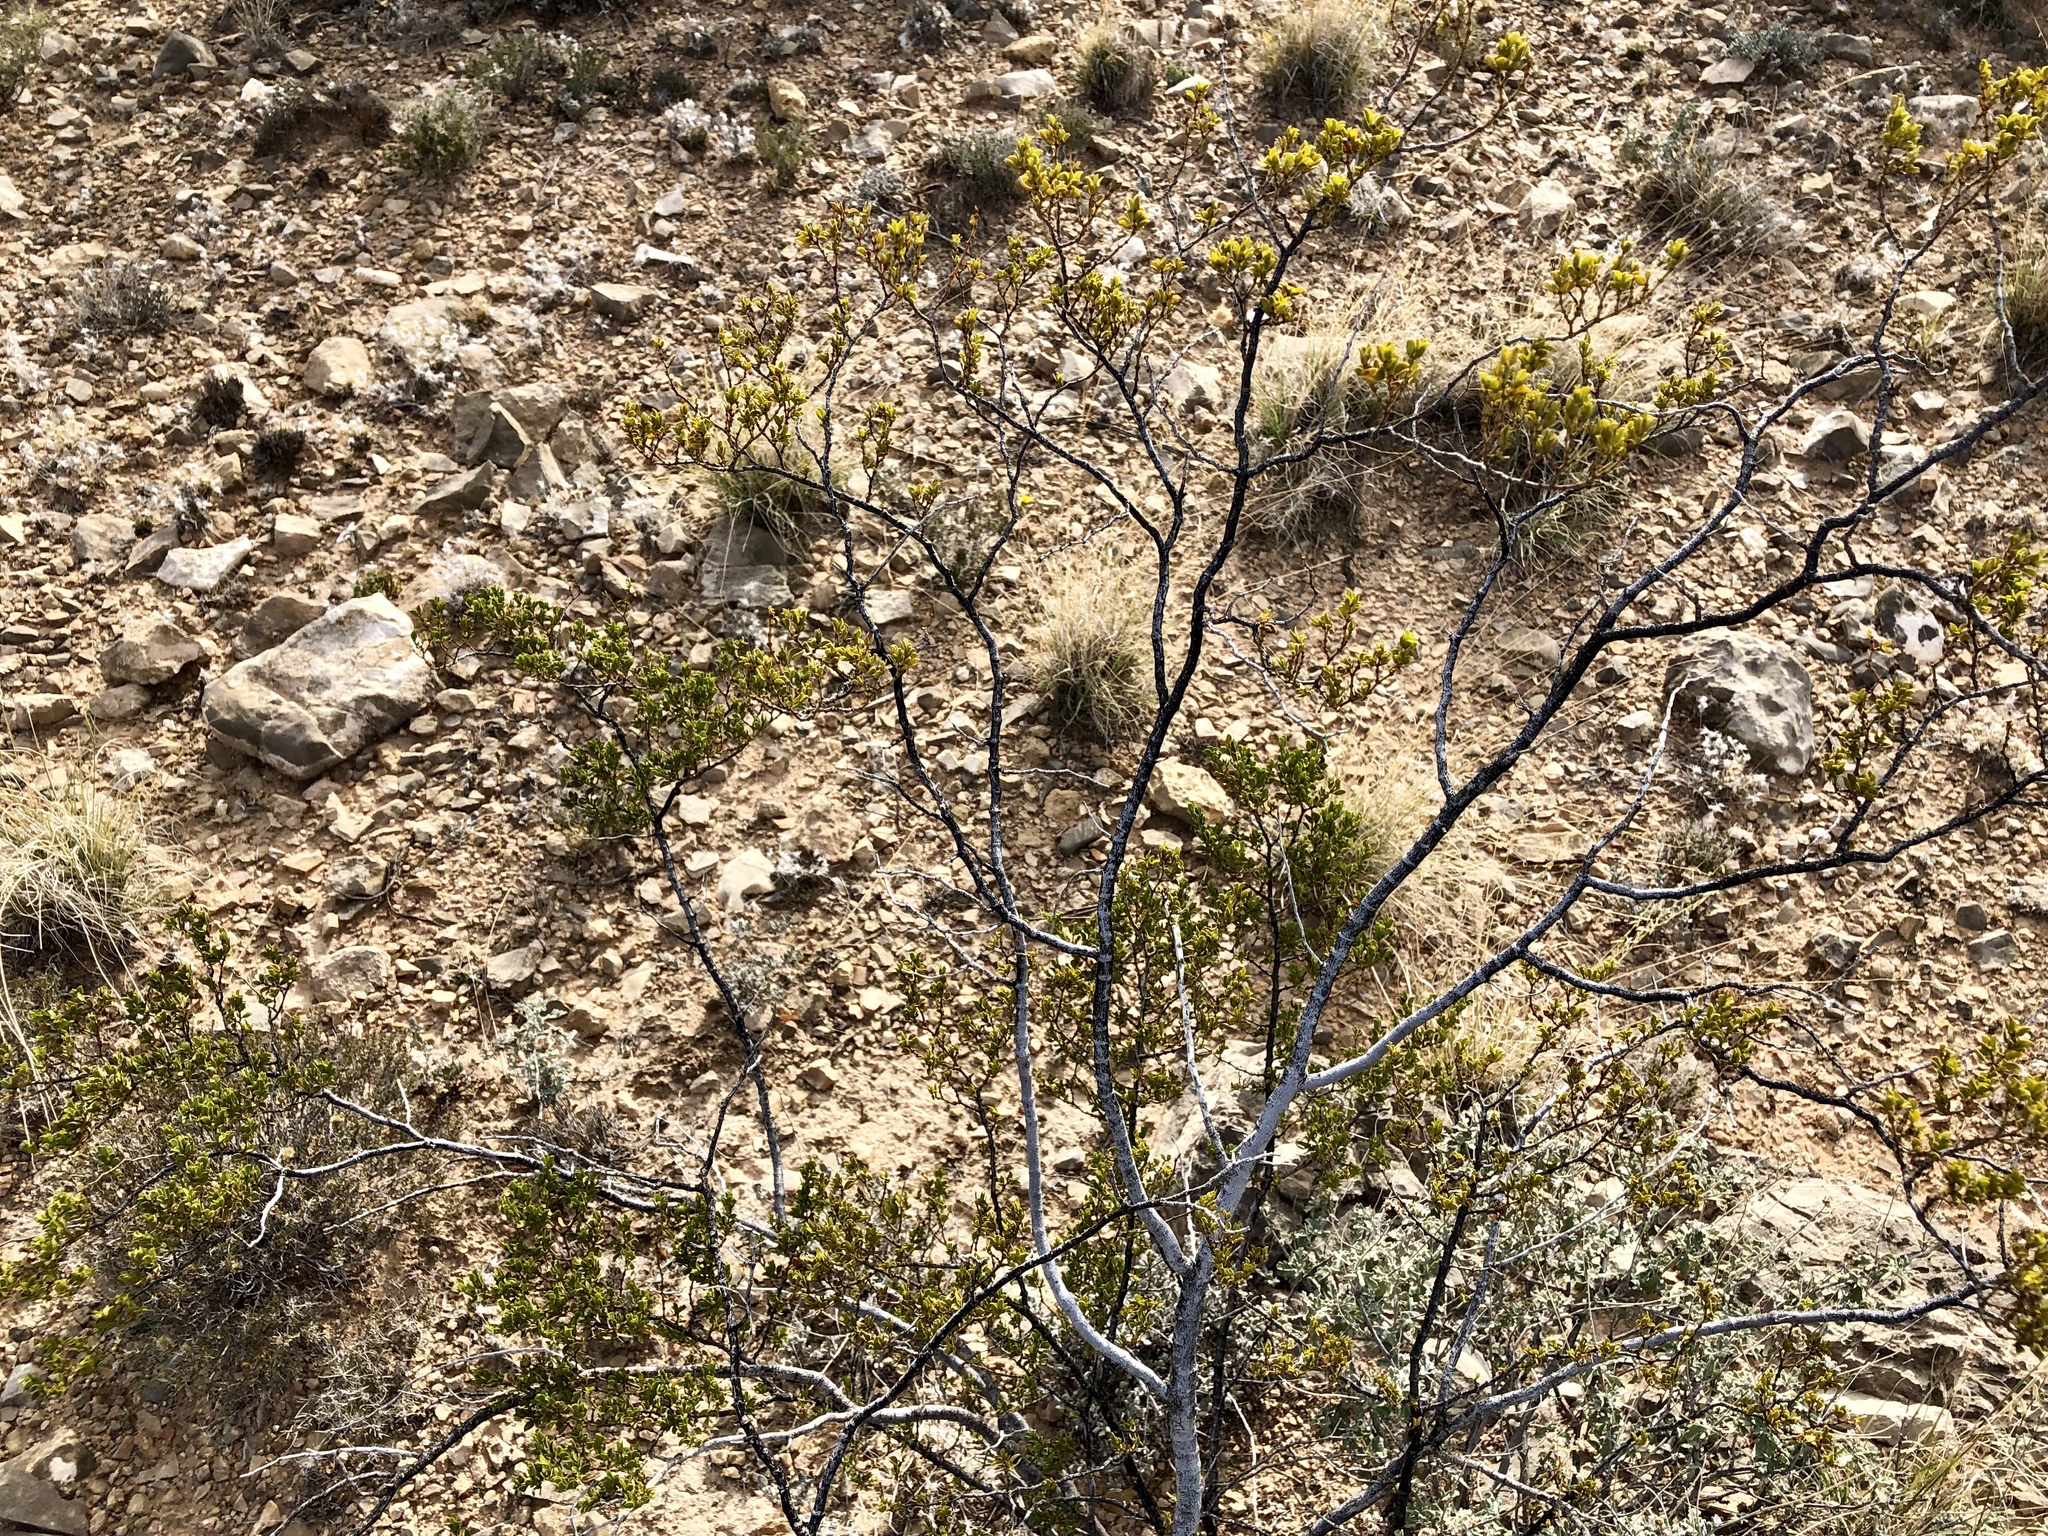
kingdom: Plantae
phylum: Tracheophyta
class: Magnoliopsida
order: Zygophyllales
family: Zygophyllaceae
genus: Larrea
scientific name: Larrea tridentata
